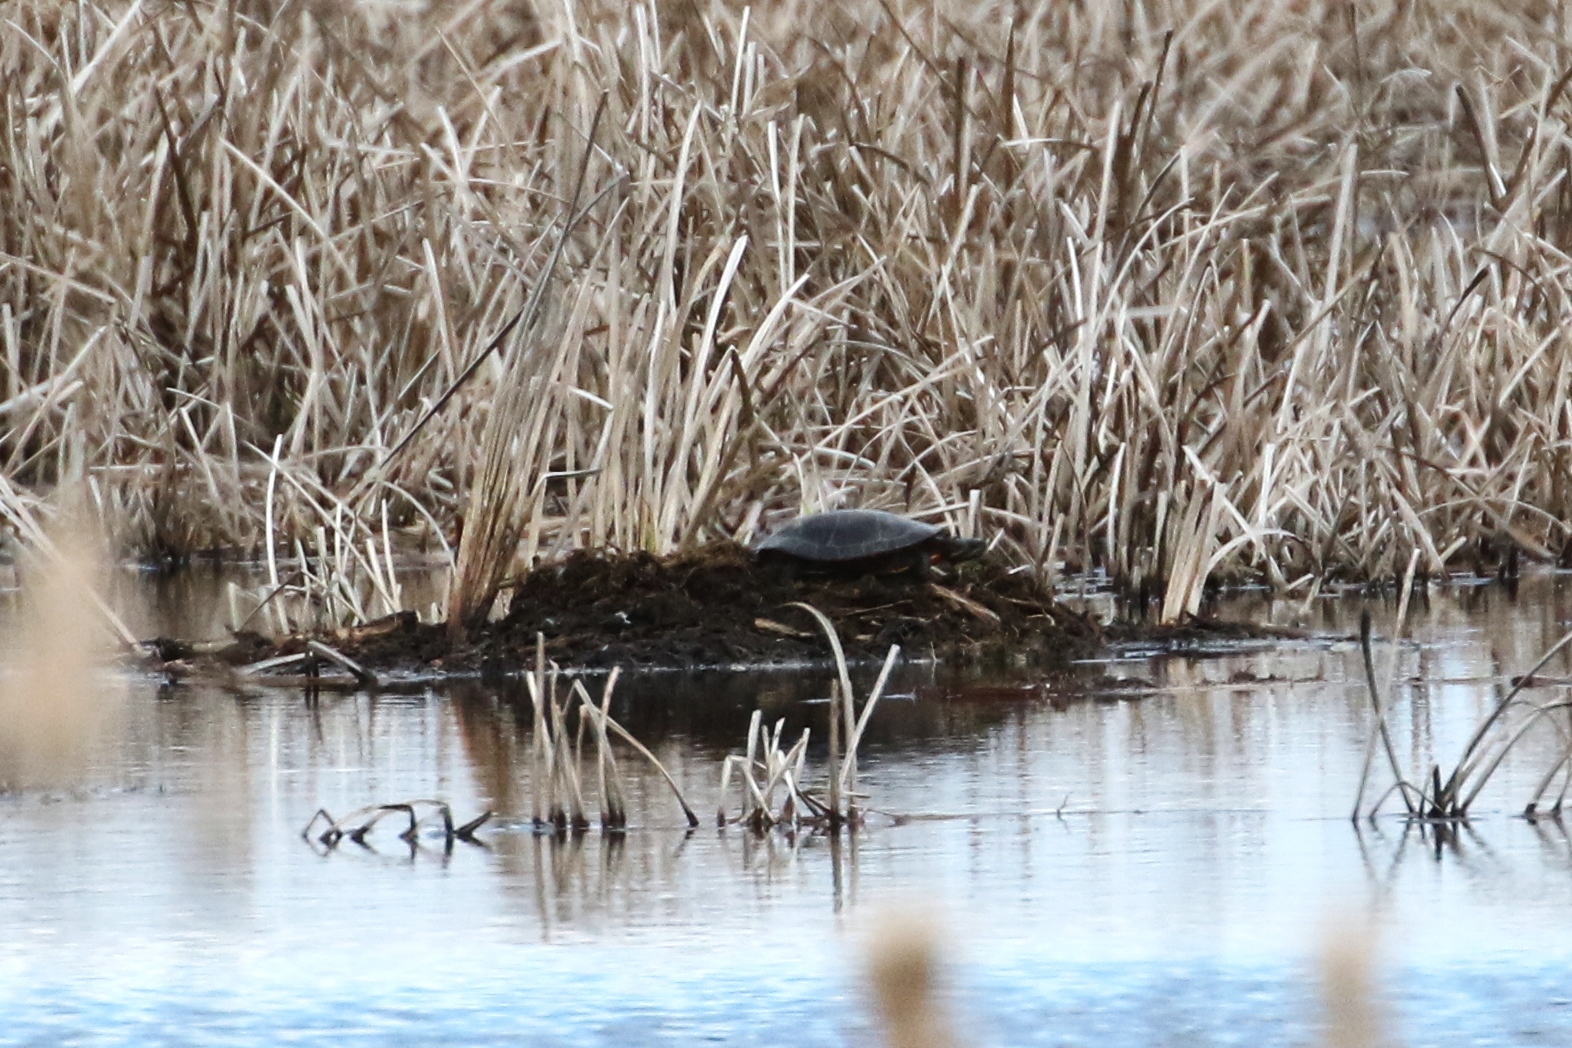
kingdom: Animalia
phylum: Chordata
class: Testudines
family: Emydidae
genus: Chrysemys
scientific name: Chrysemys picta
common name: Painted turtle
